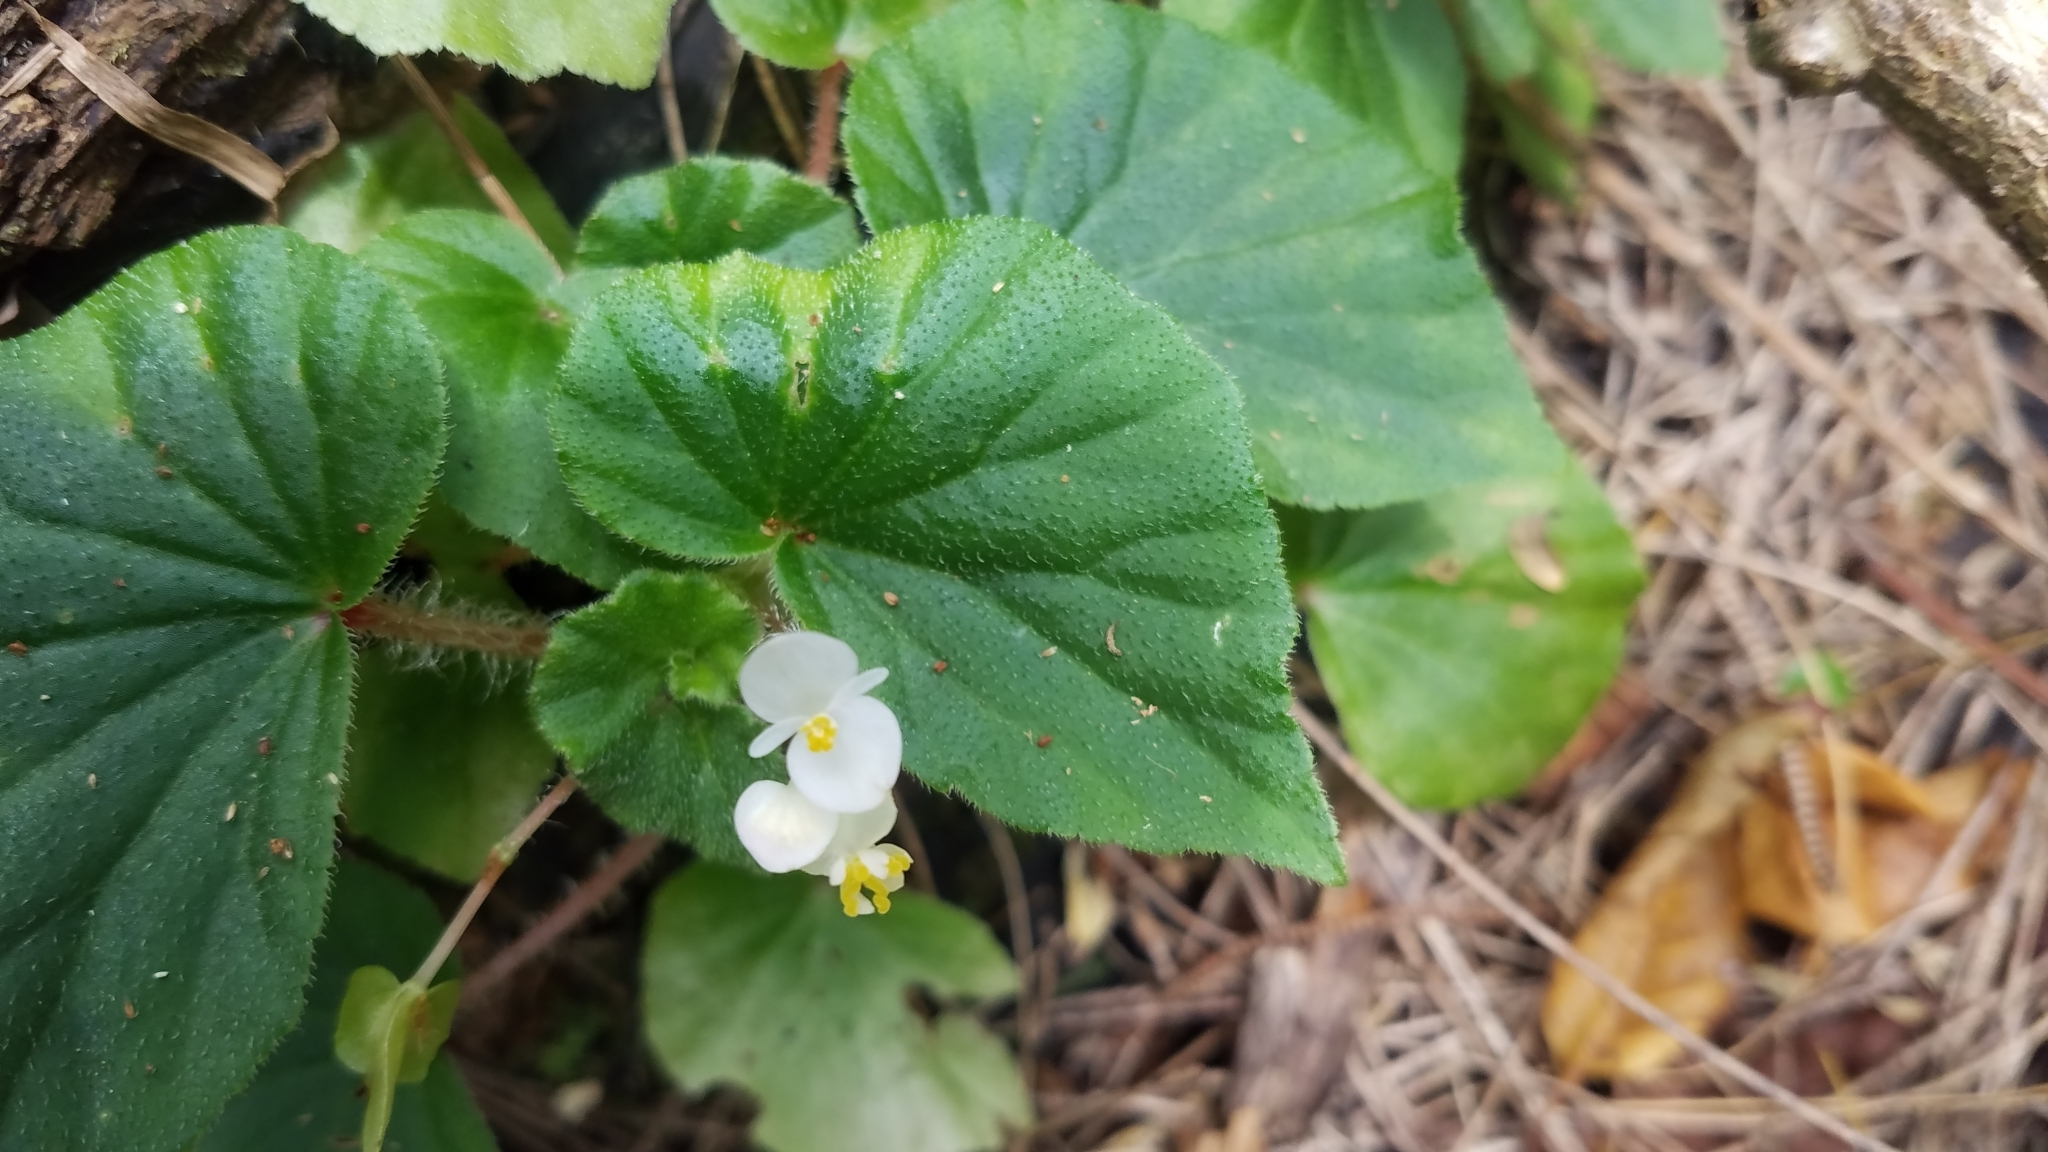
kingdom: Plantae
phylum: Tracheophyta
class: Magnoliopsida
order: Cucurbitales
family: Begoniaceae
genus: Begonia
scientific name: Begonia hirtella
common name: Brazilian begonia
